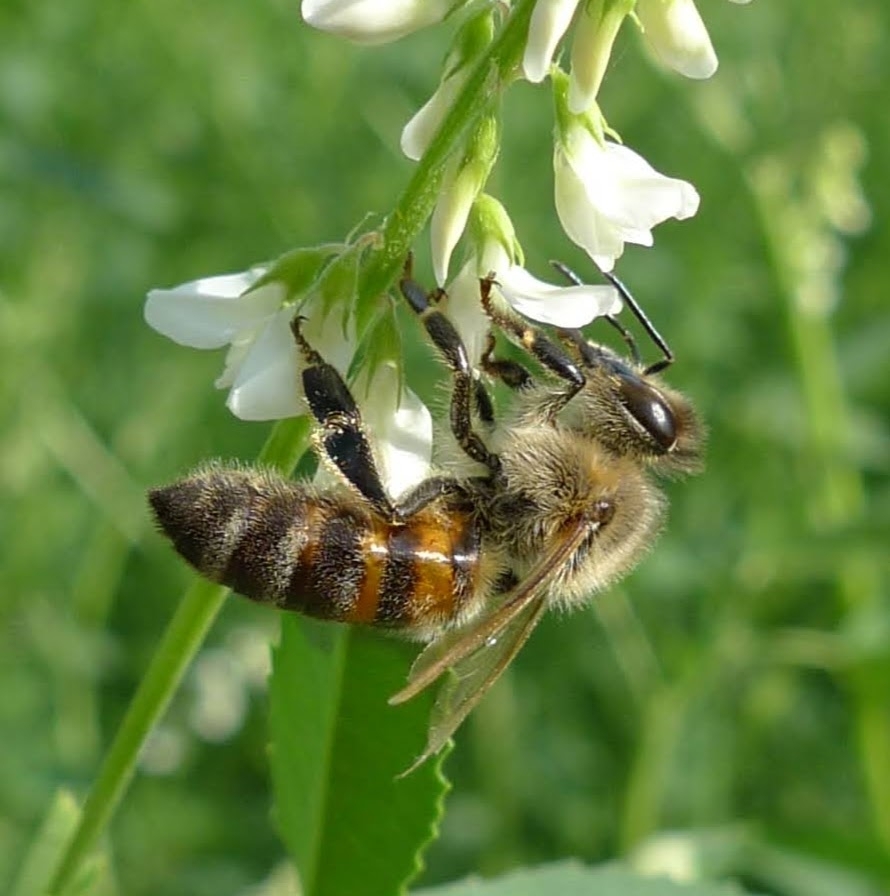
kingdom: Animalia
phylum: Arthropoda
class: Insecta
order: Hymenoptera
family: Apidae
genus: Apis
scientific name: Apis mellifera
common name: Honey bee
